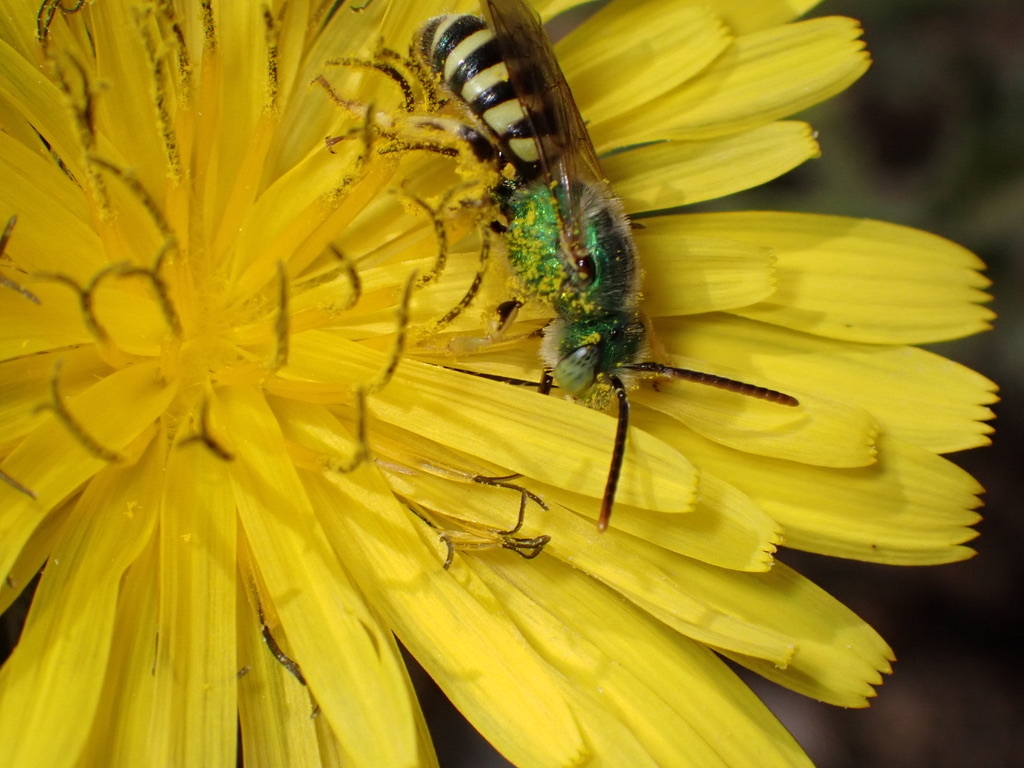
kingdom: Animalia
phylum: Arthropoda
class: Insecta
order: Hymenoptera
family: Halictidae
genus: Agapostemon
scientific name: Agapostemon texanus
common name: Texas striped sweat bee
